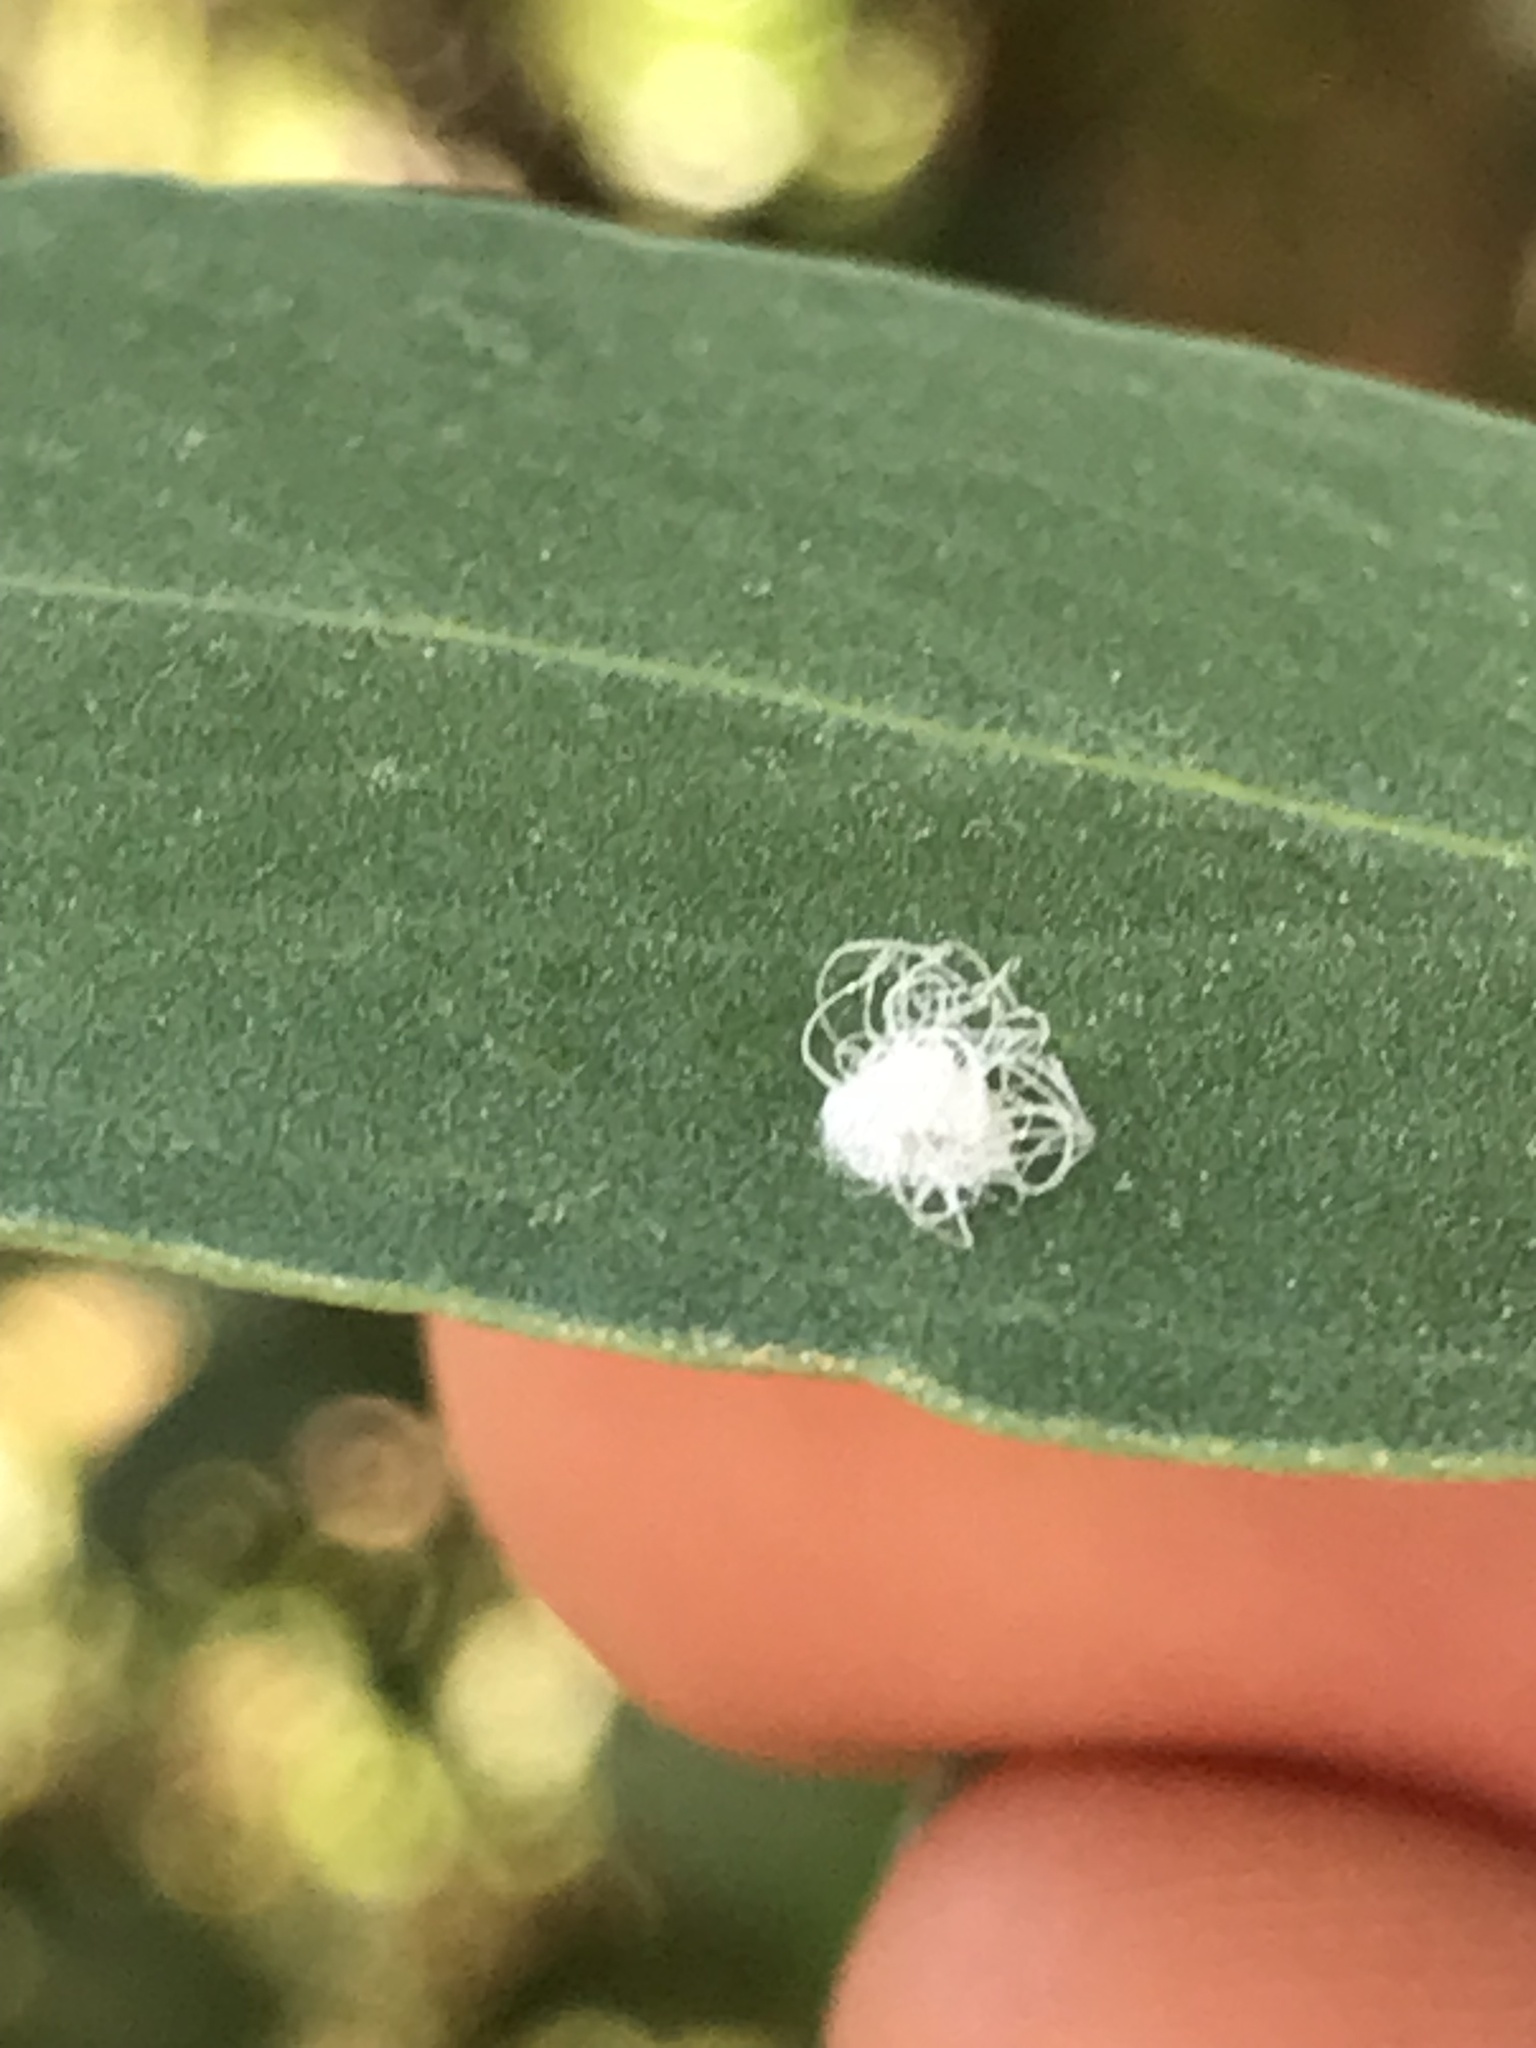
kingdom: Animalia
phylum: Arthropoda
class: Insecta
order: Hemiptera
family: Aphalaridae
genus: Glycaspis
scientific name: Glycaspis brimblecombei
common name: Red gum lerp psyllid
